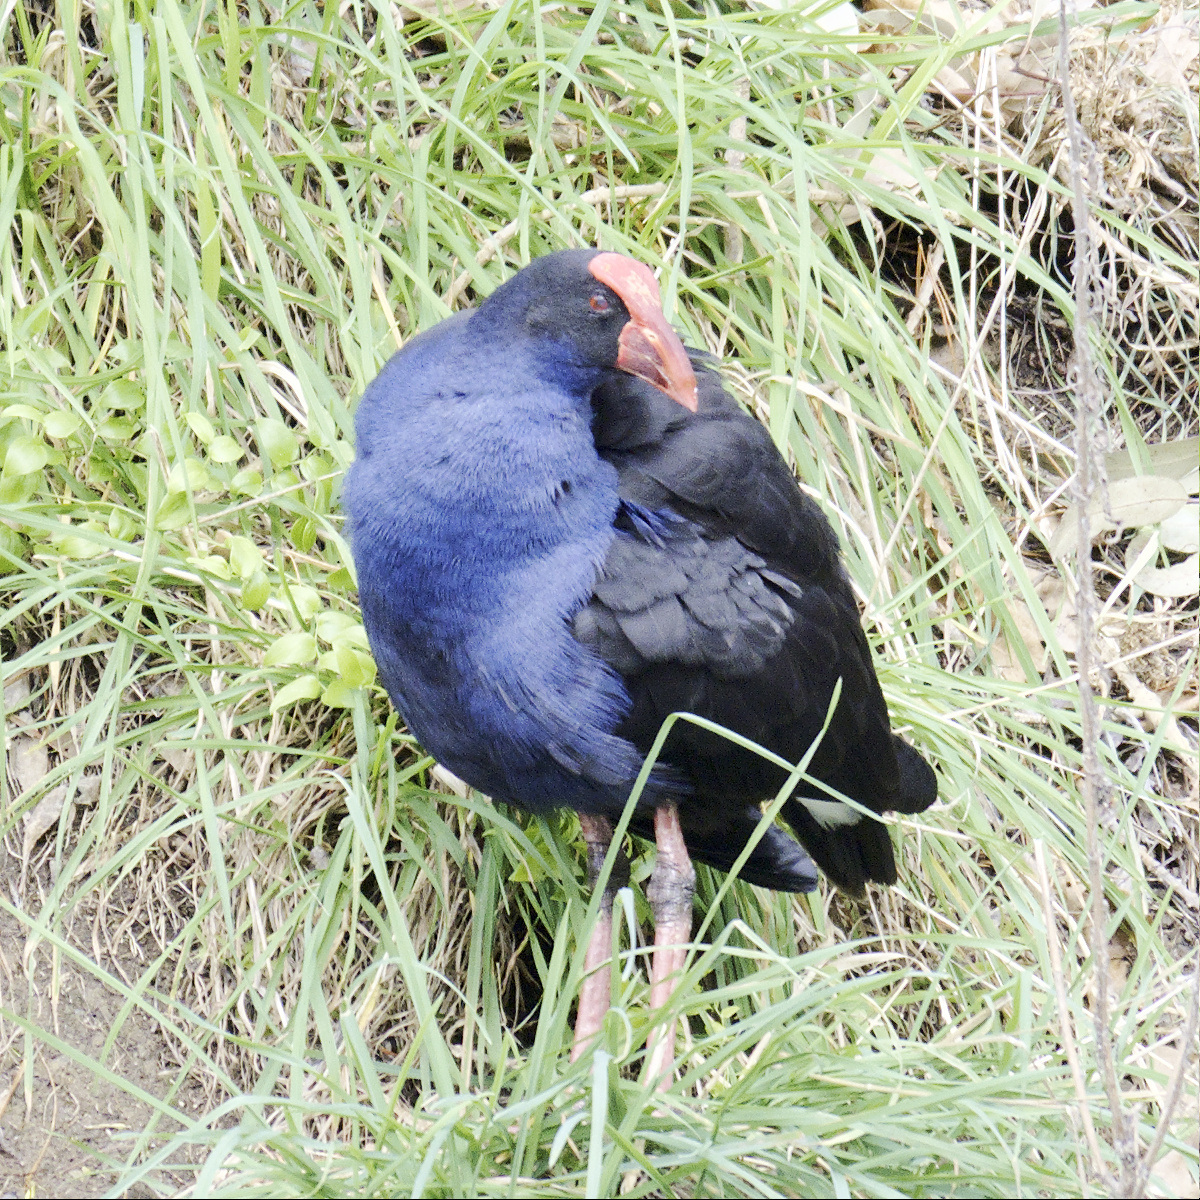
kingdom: Animalia
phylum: Chordata
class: Aves
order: Gruiformes
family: Rallidae
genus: Porphyrio
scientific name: Porphyrio melanotus
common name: Australasian swamphen
